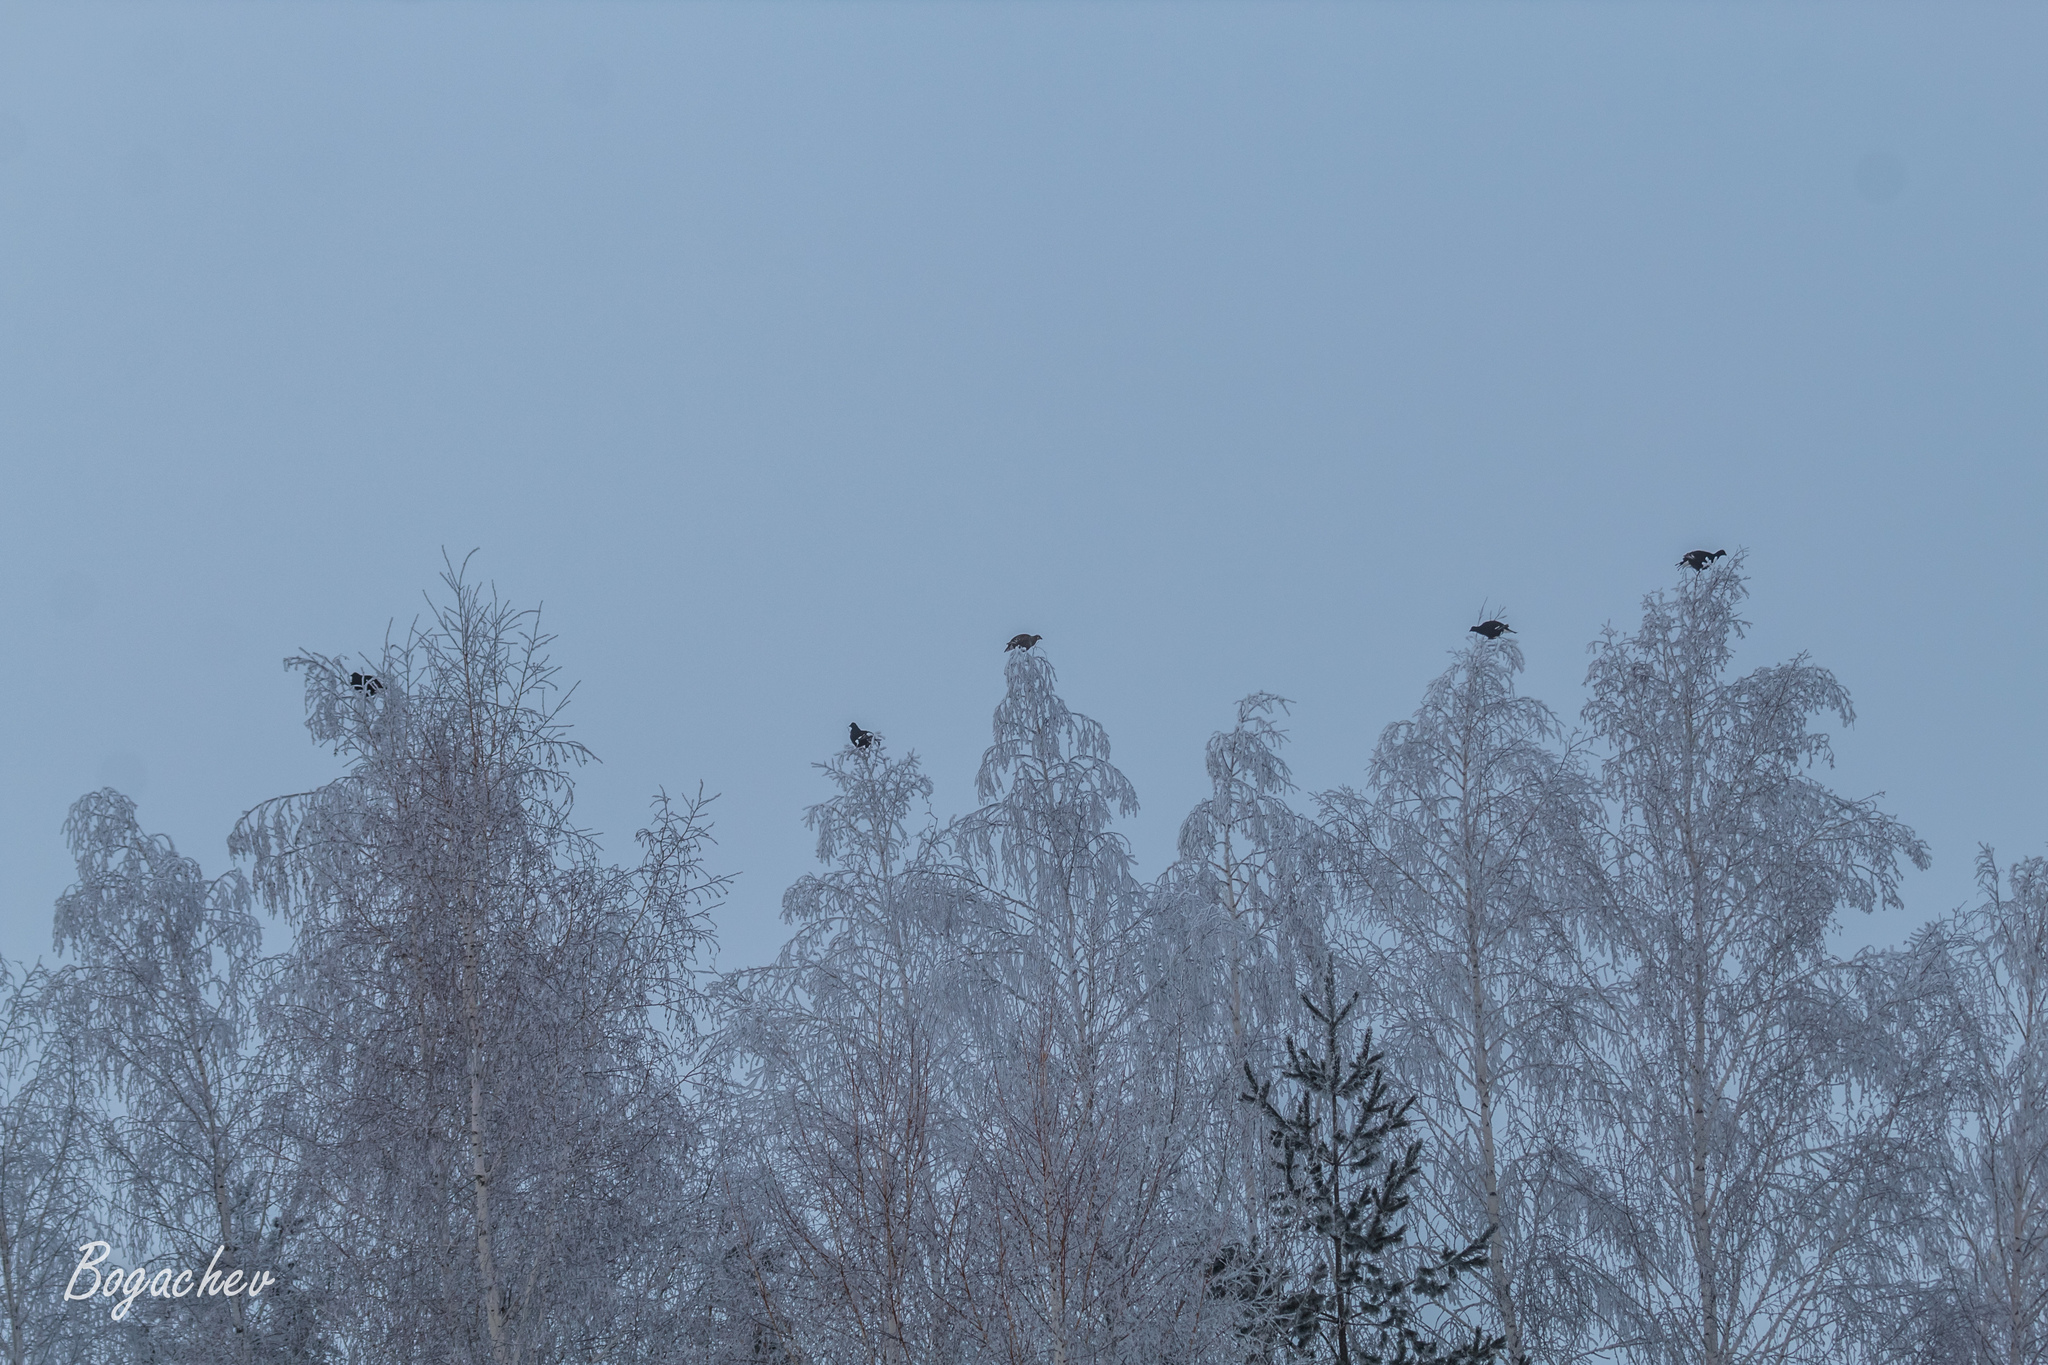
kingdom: Animalia
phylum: Chordata
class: Aves
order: Galliformes
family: Phasianidae
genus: Lyrurus
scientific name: Lyrurus tetrix
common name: Black grouse
